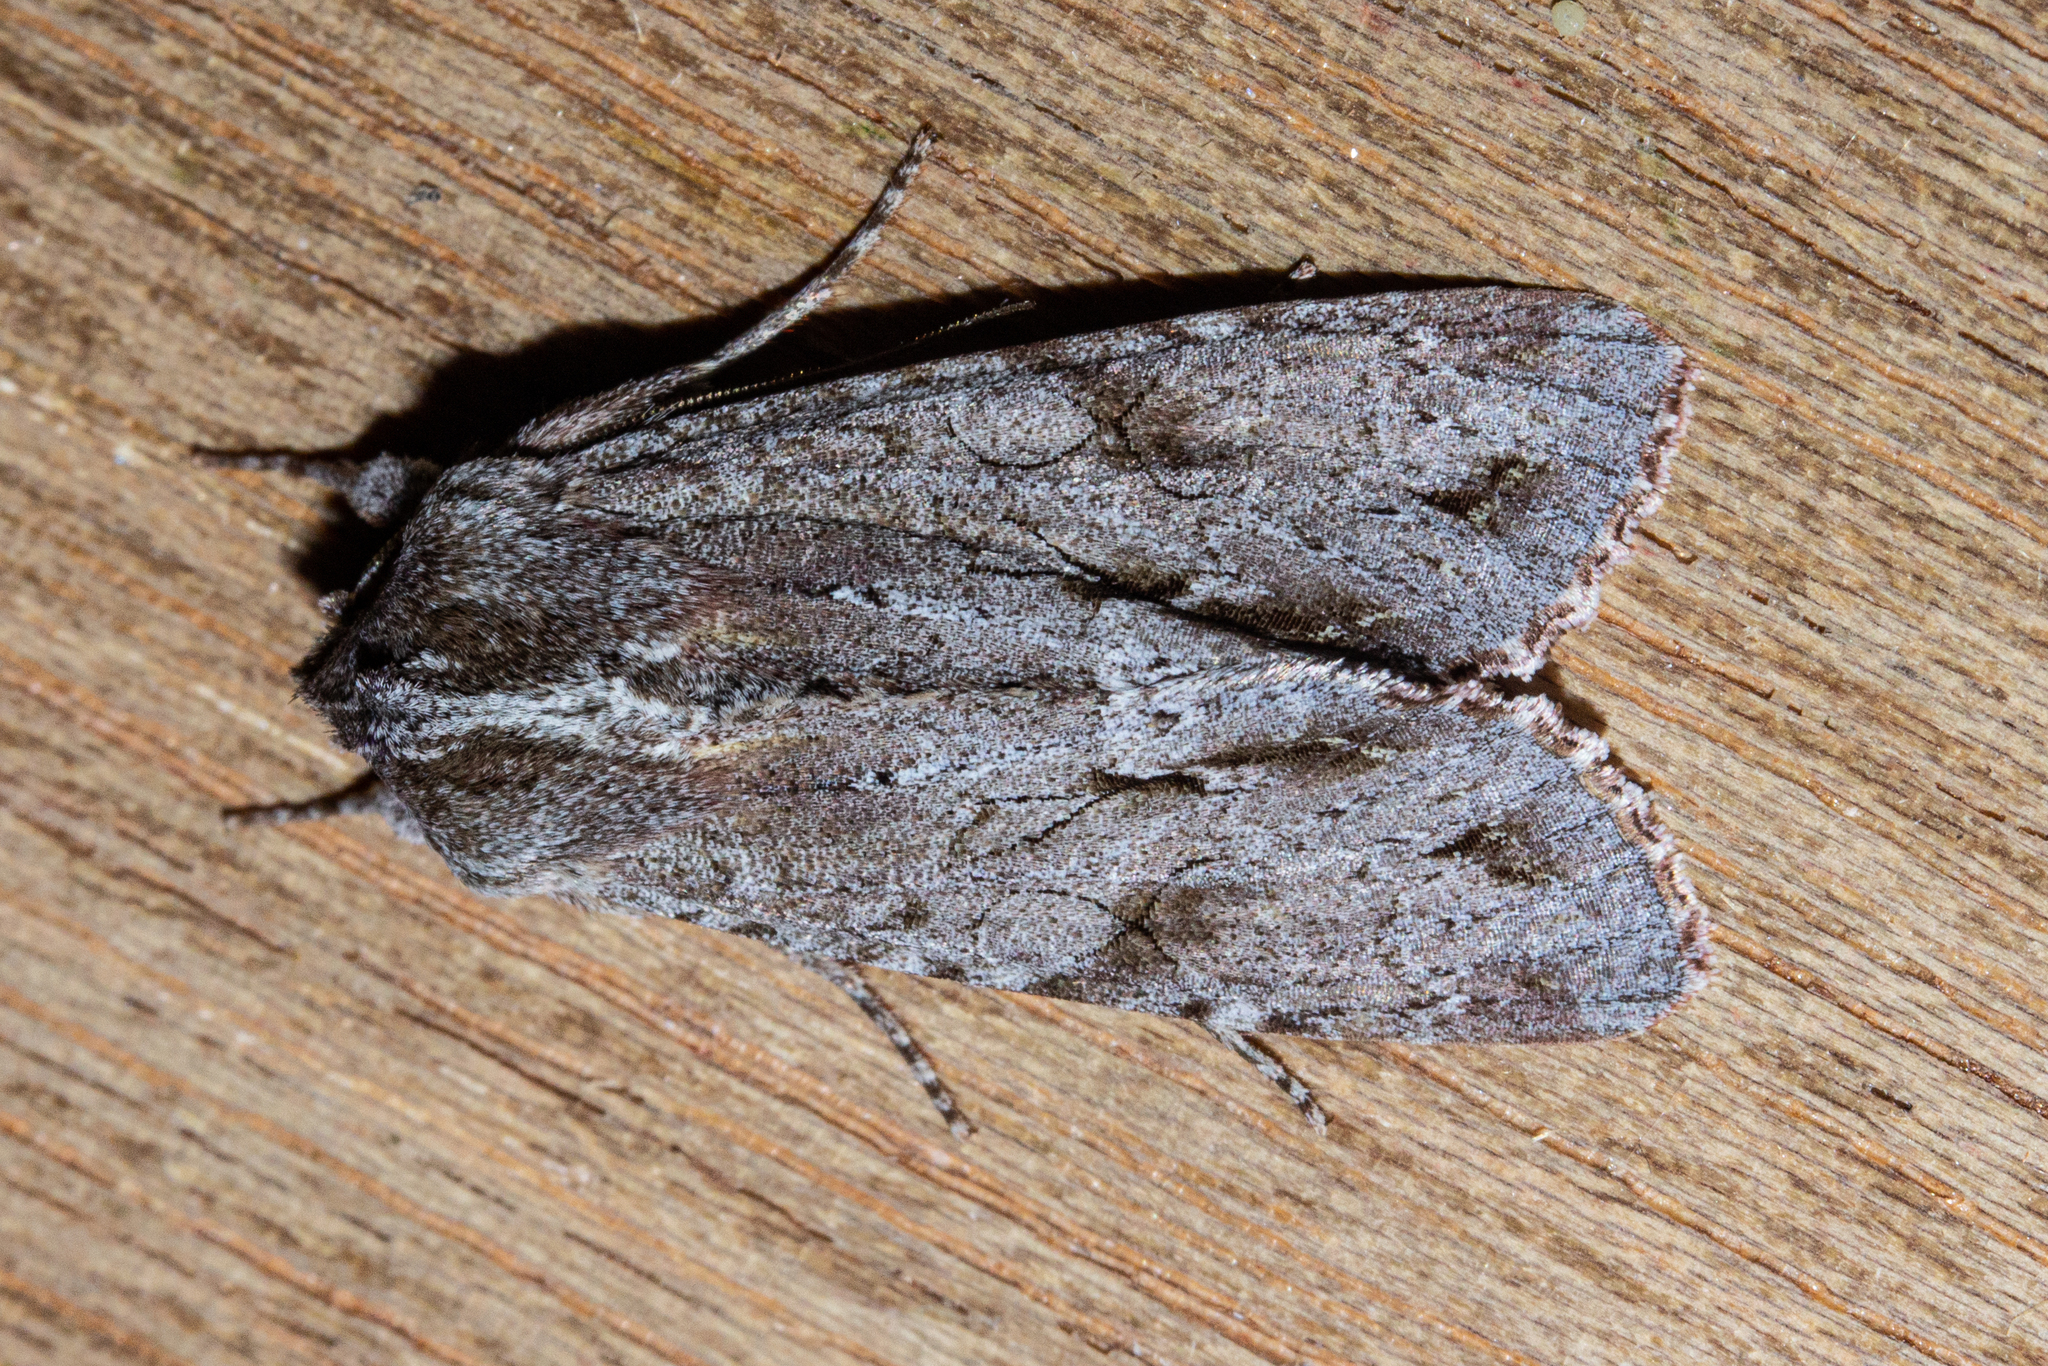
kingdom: Animalia
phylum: Arthropoda
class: Insecta
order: Lepidoptera
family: Noctuidae
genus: Ichneutica
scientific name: Ichneutica
